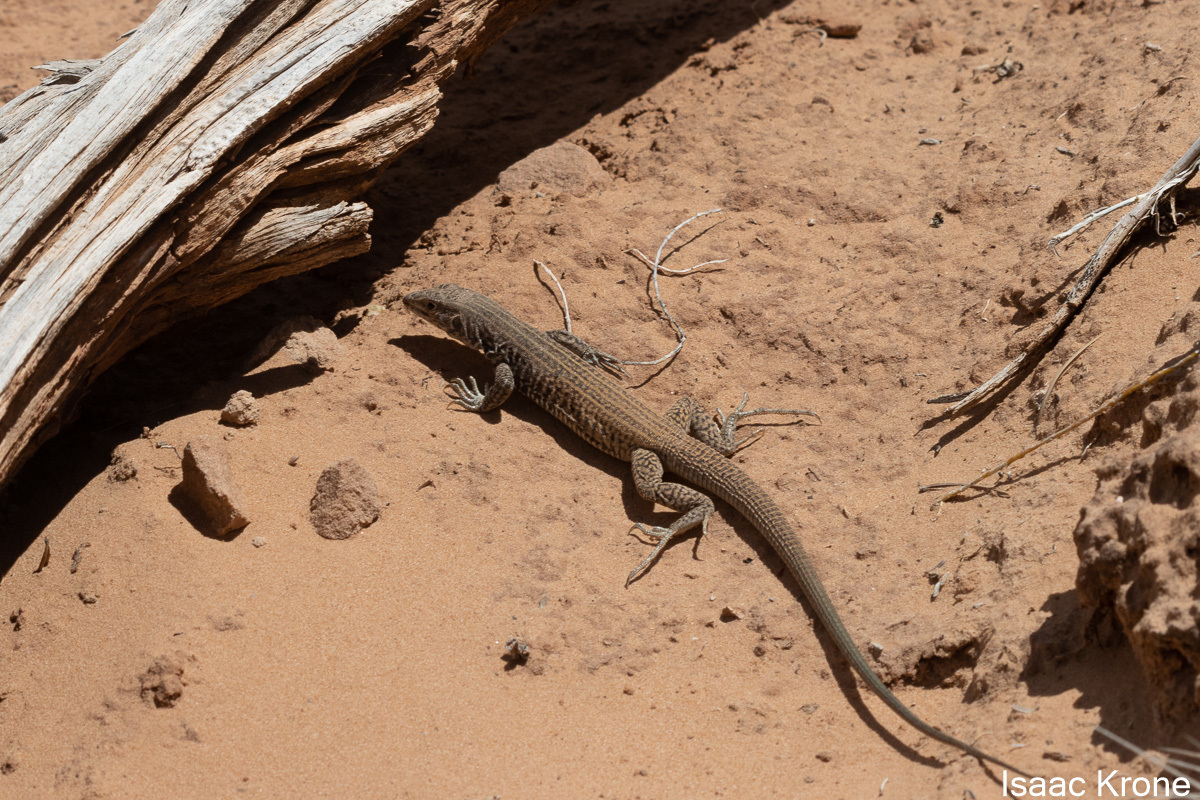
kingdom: Animalia
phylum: Chordata
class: Squamata
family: Teiidae
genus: Aspidoscelis
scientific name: Aspidoscelis tigris
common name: Tiger whiptail
